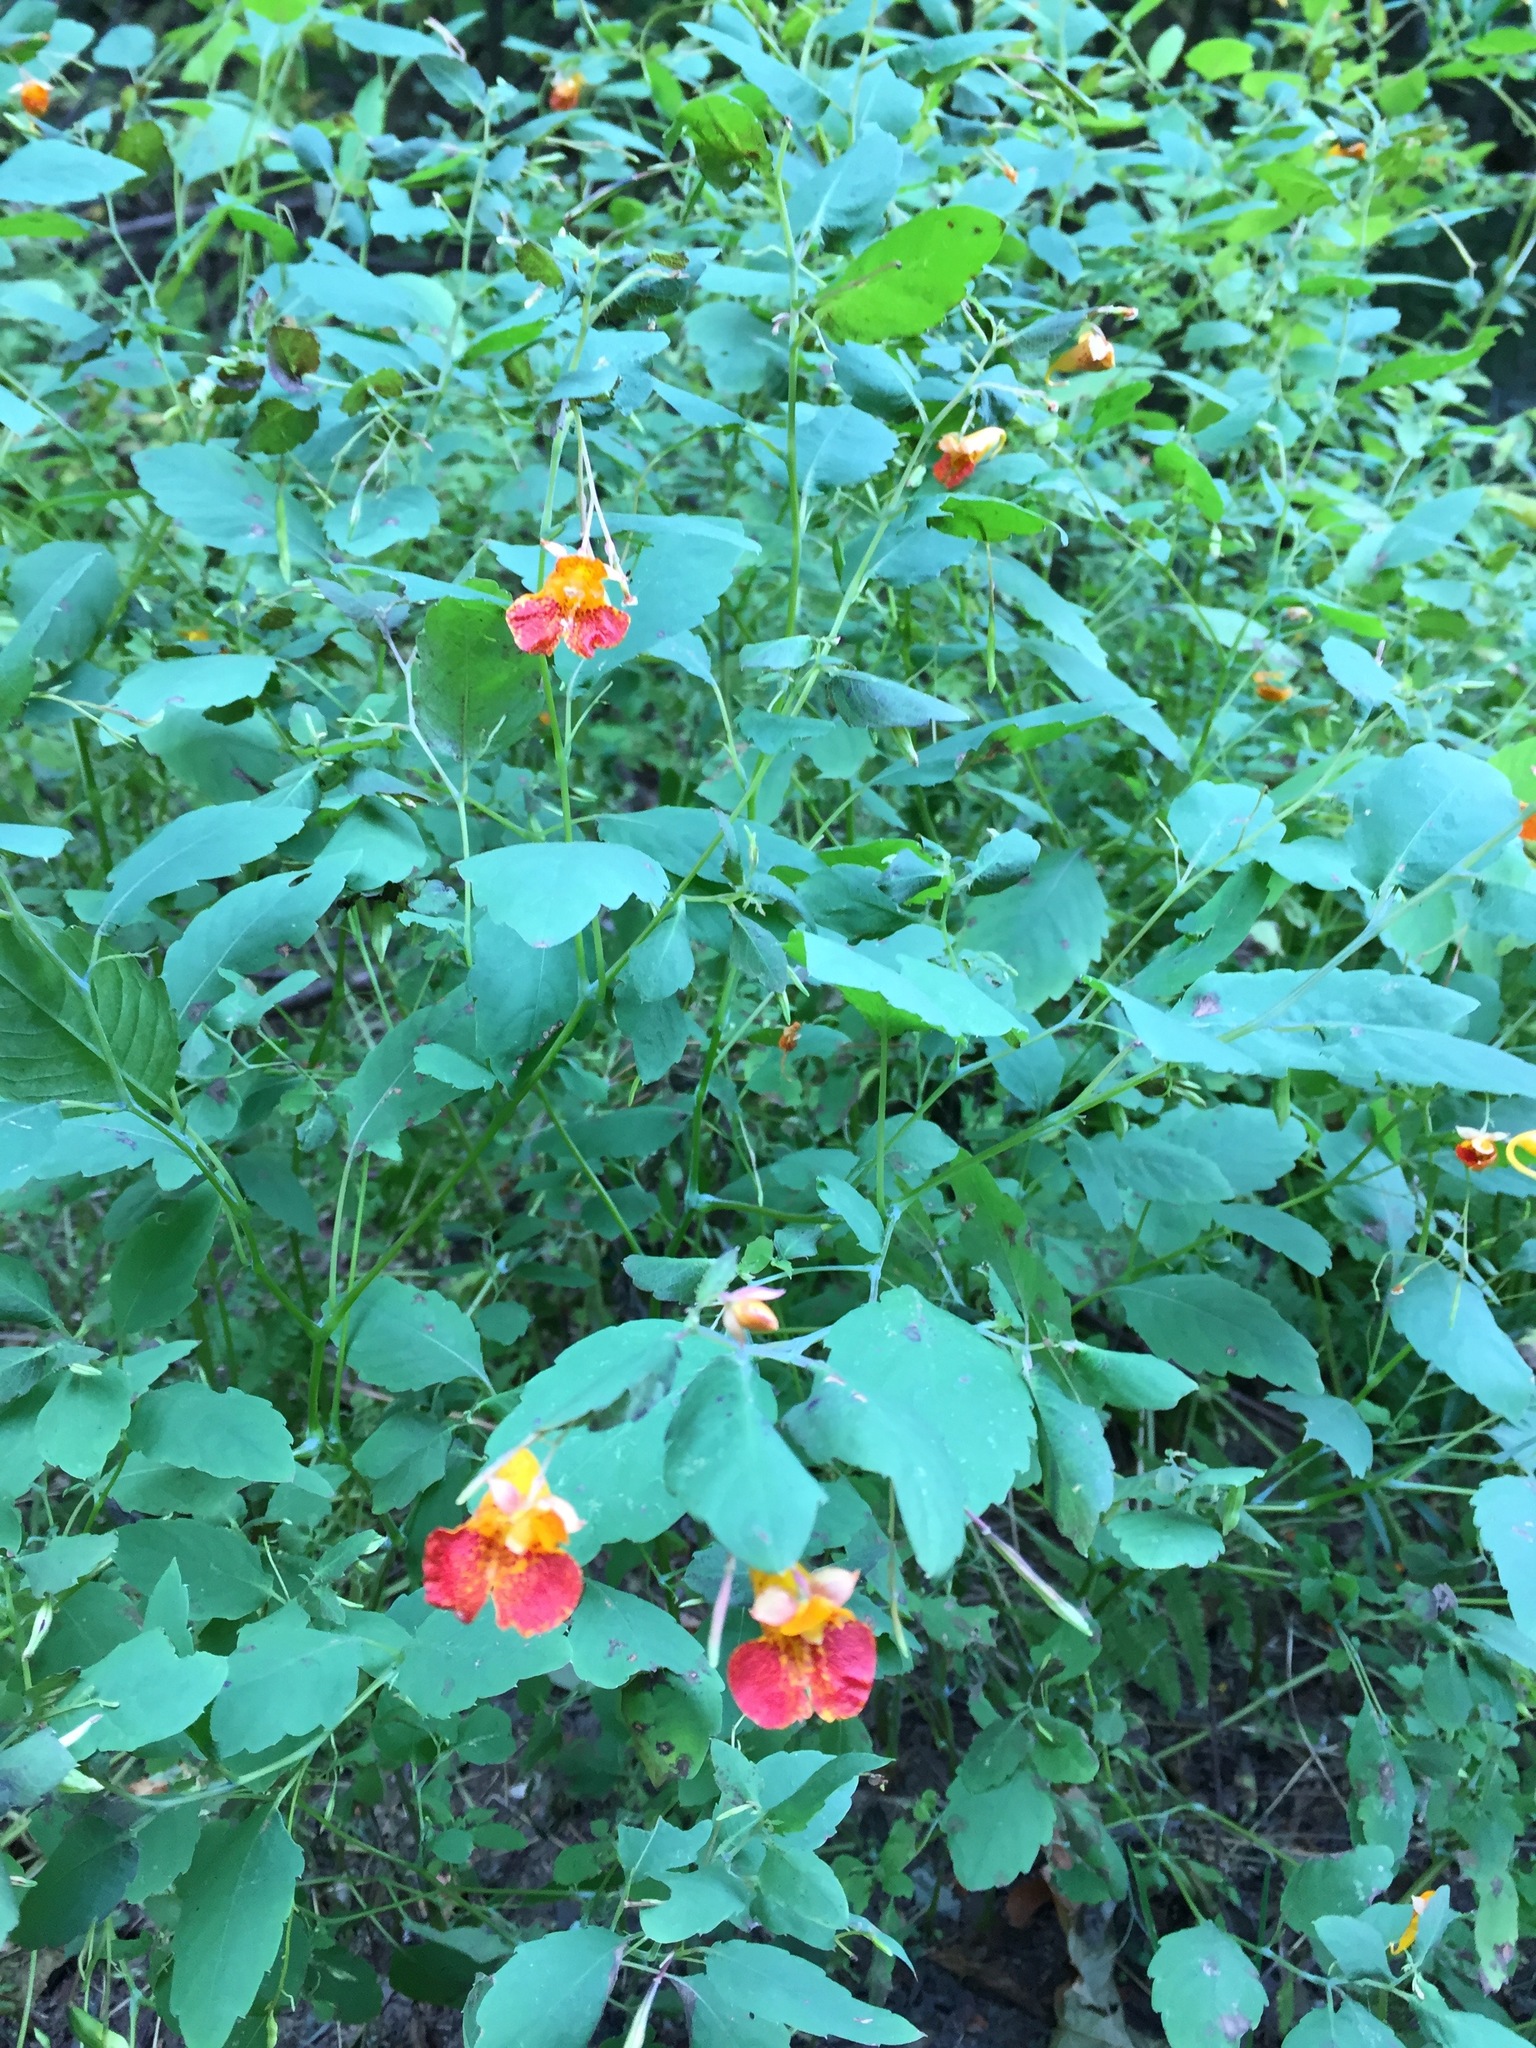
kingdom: Plantae
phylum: Tracheophyta
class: Magnoliopsida
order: Ericales
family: Balsaminaceae
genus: Impatiens
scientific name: Impatiens capensis
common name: Orange balsam
